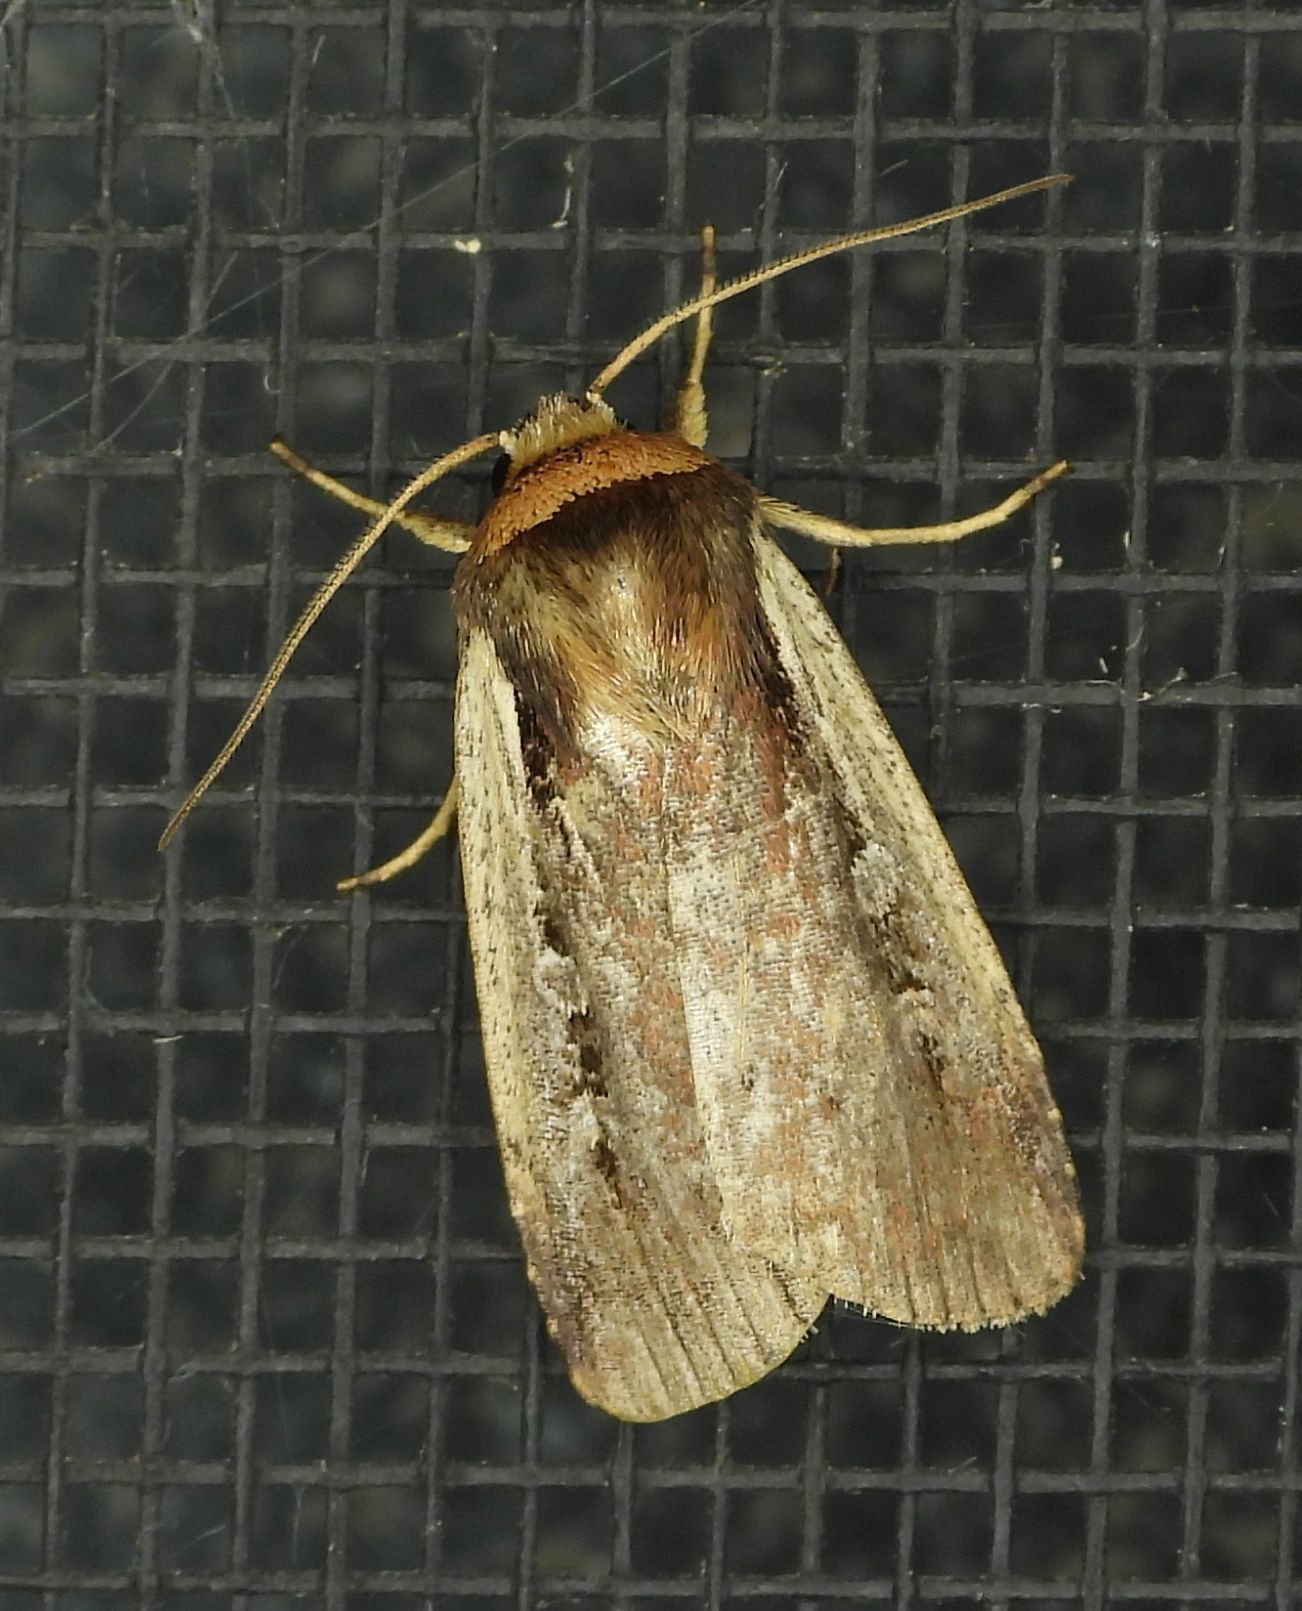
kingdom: Animalia
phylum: Arthropoda
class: Insecta
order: Lepidoptera
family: Noctuidae
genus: Ochropleura
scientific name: Ochropleura implecta
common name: Flame-shouldered dart
